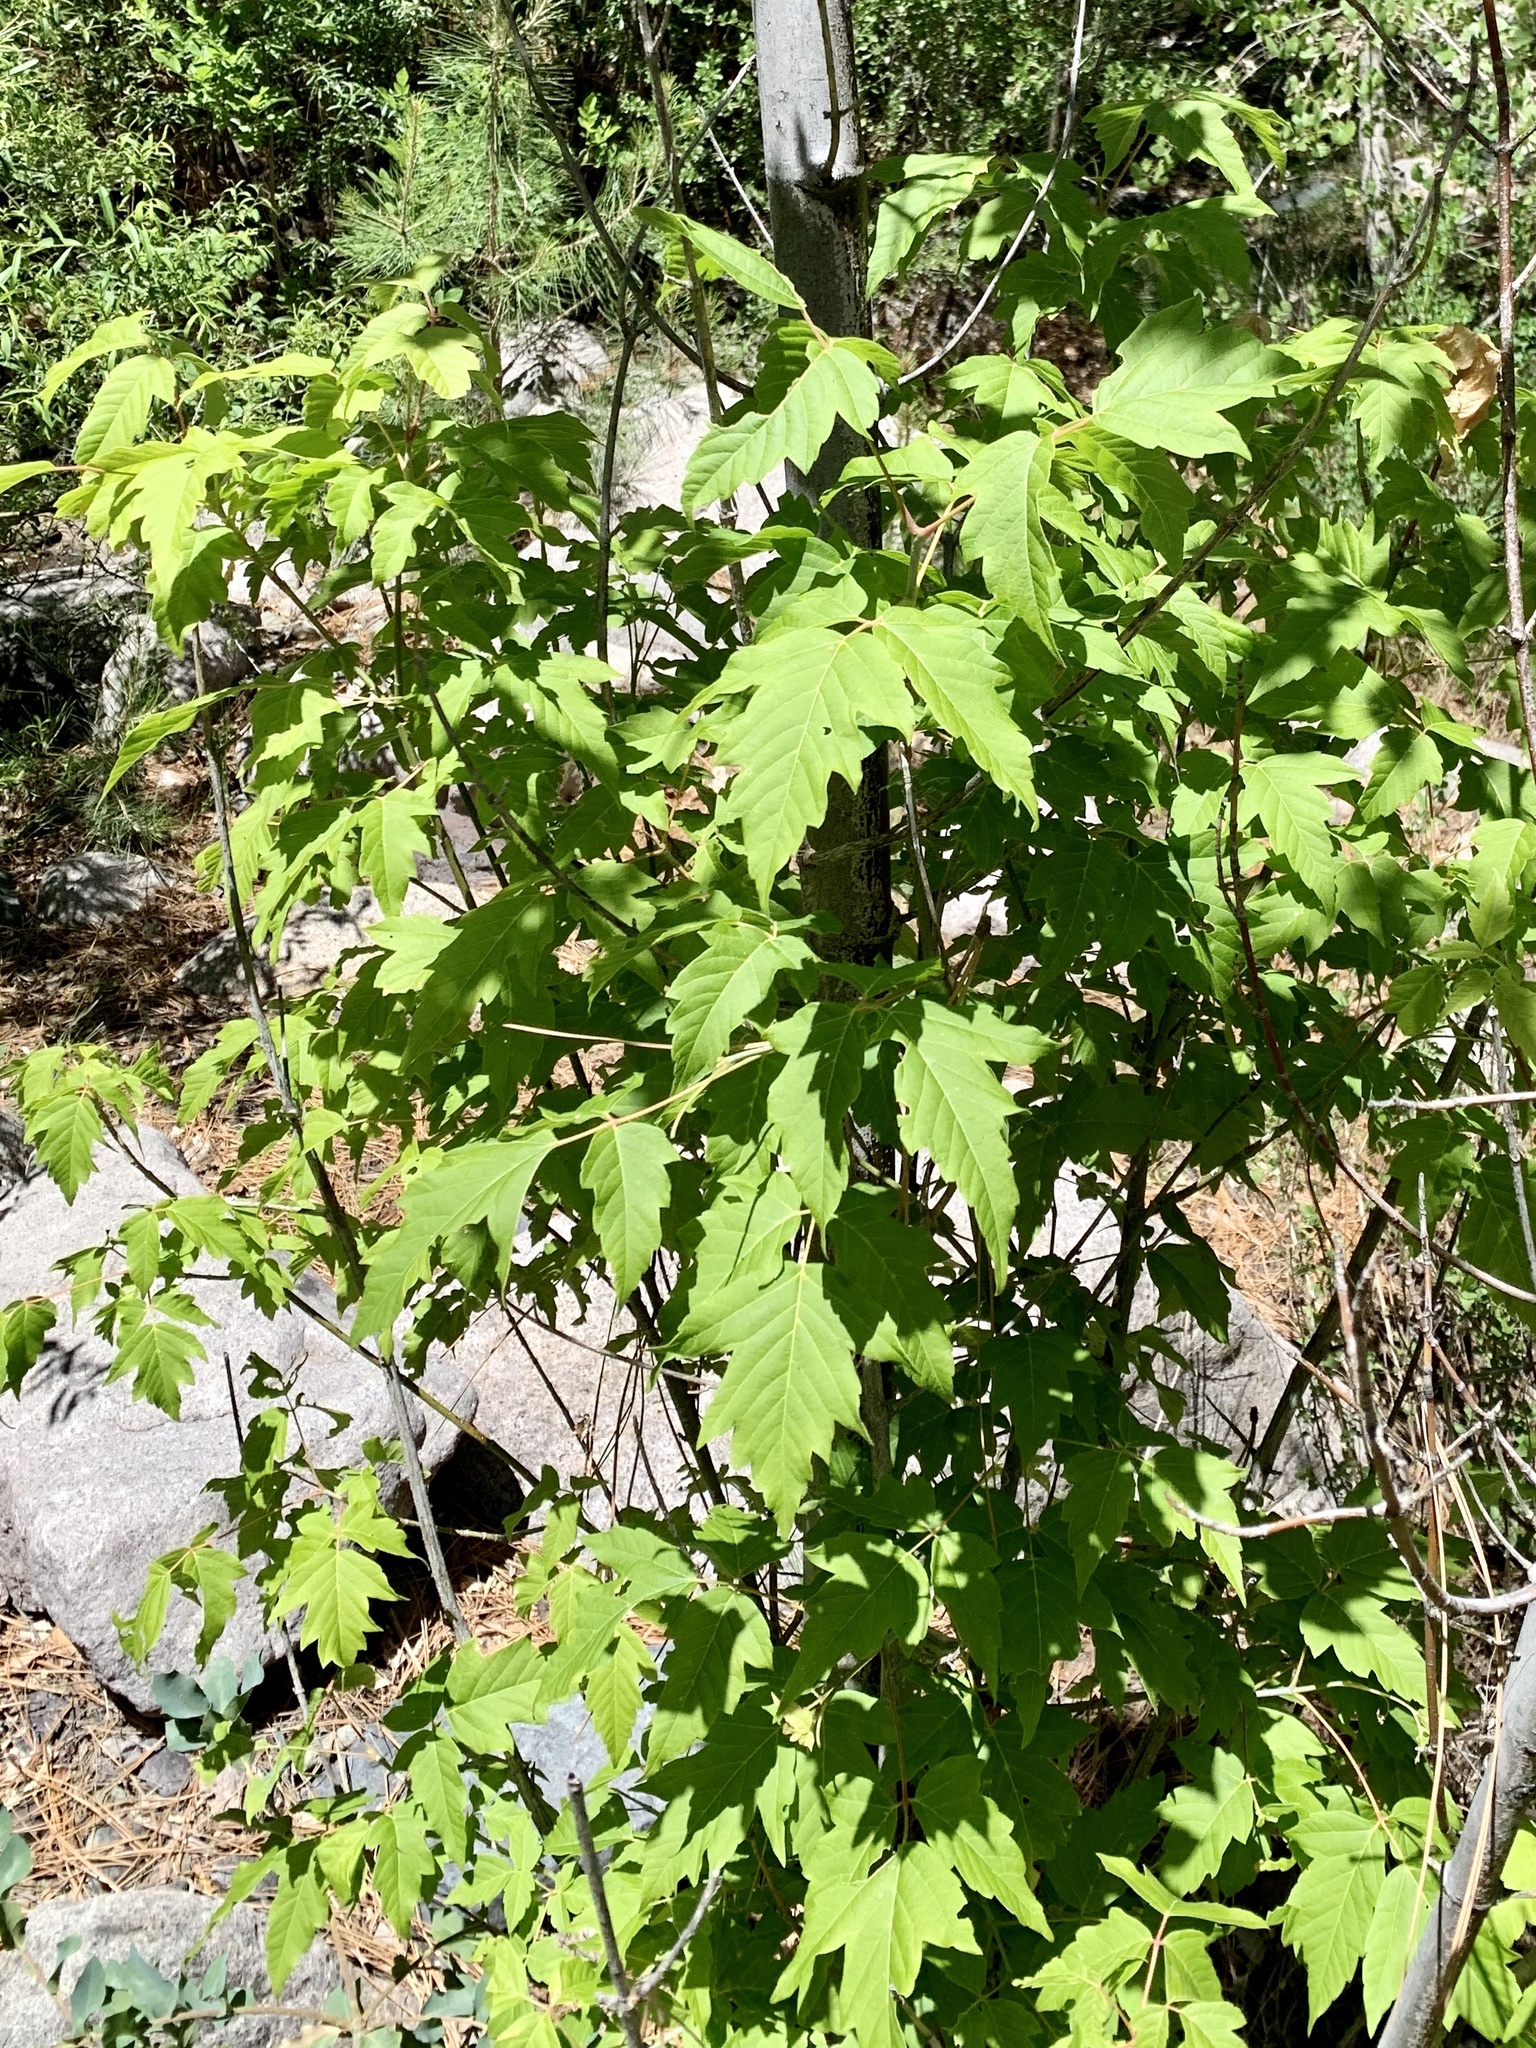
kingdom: Plantae
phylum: Tracheophyta
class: Magnoliopsida
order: Sapindales
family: Sapindaceae
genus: Acer
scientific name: Acer negundo
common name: Ashleaf maple
